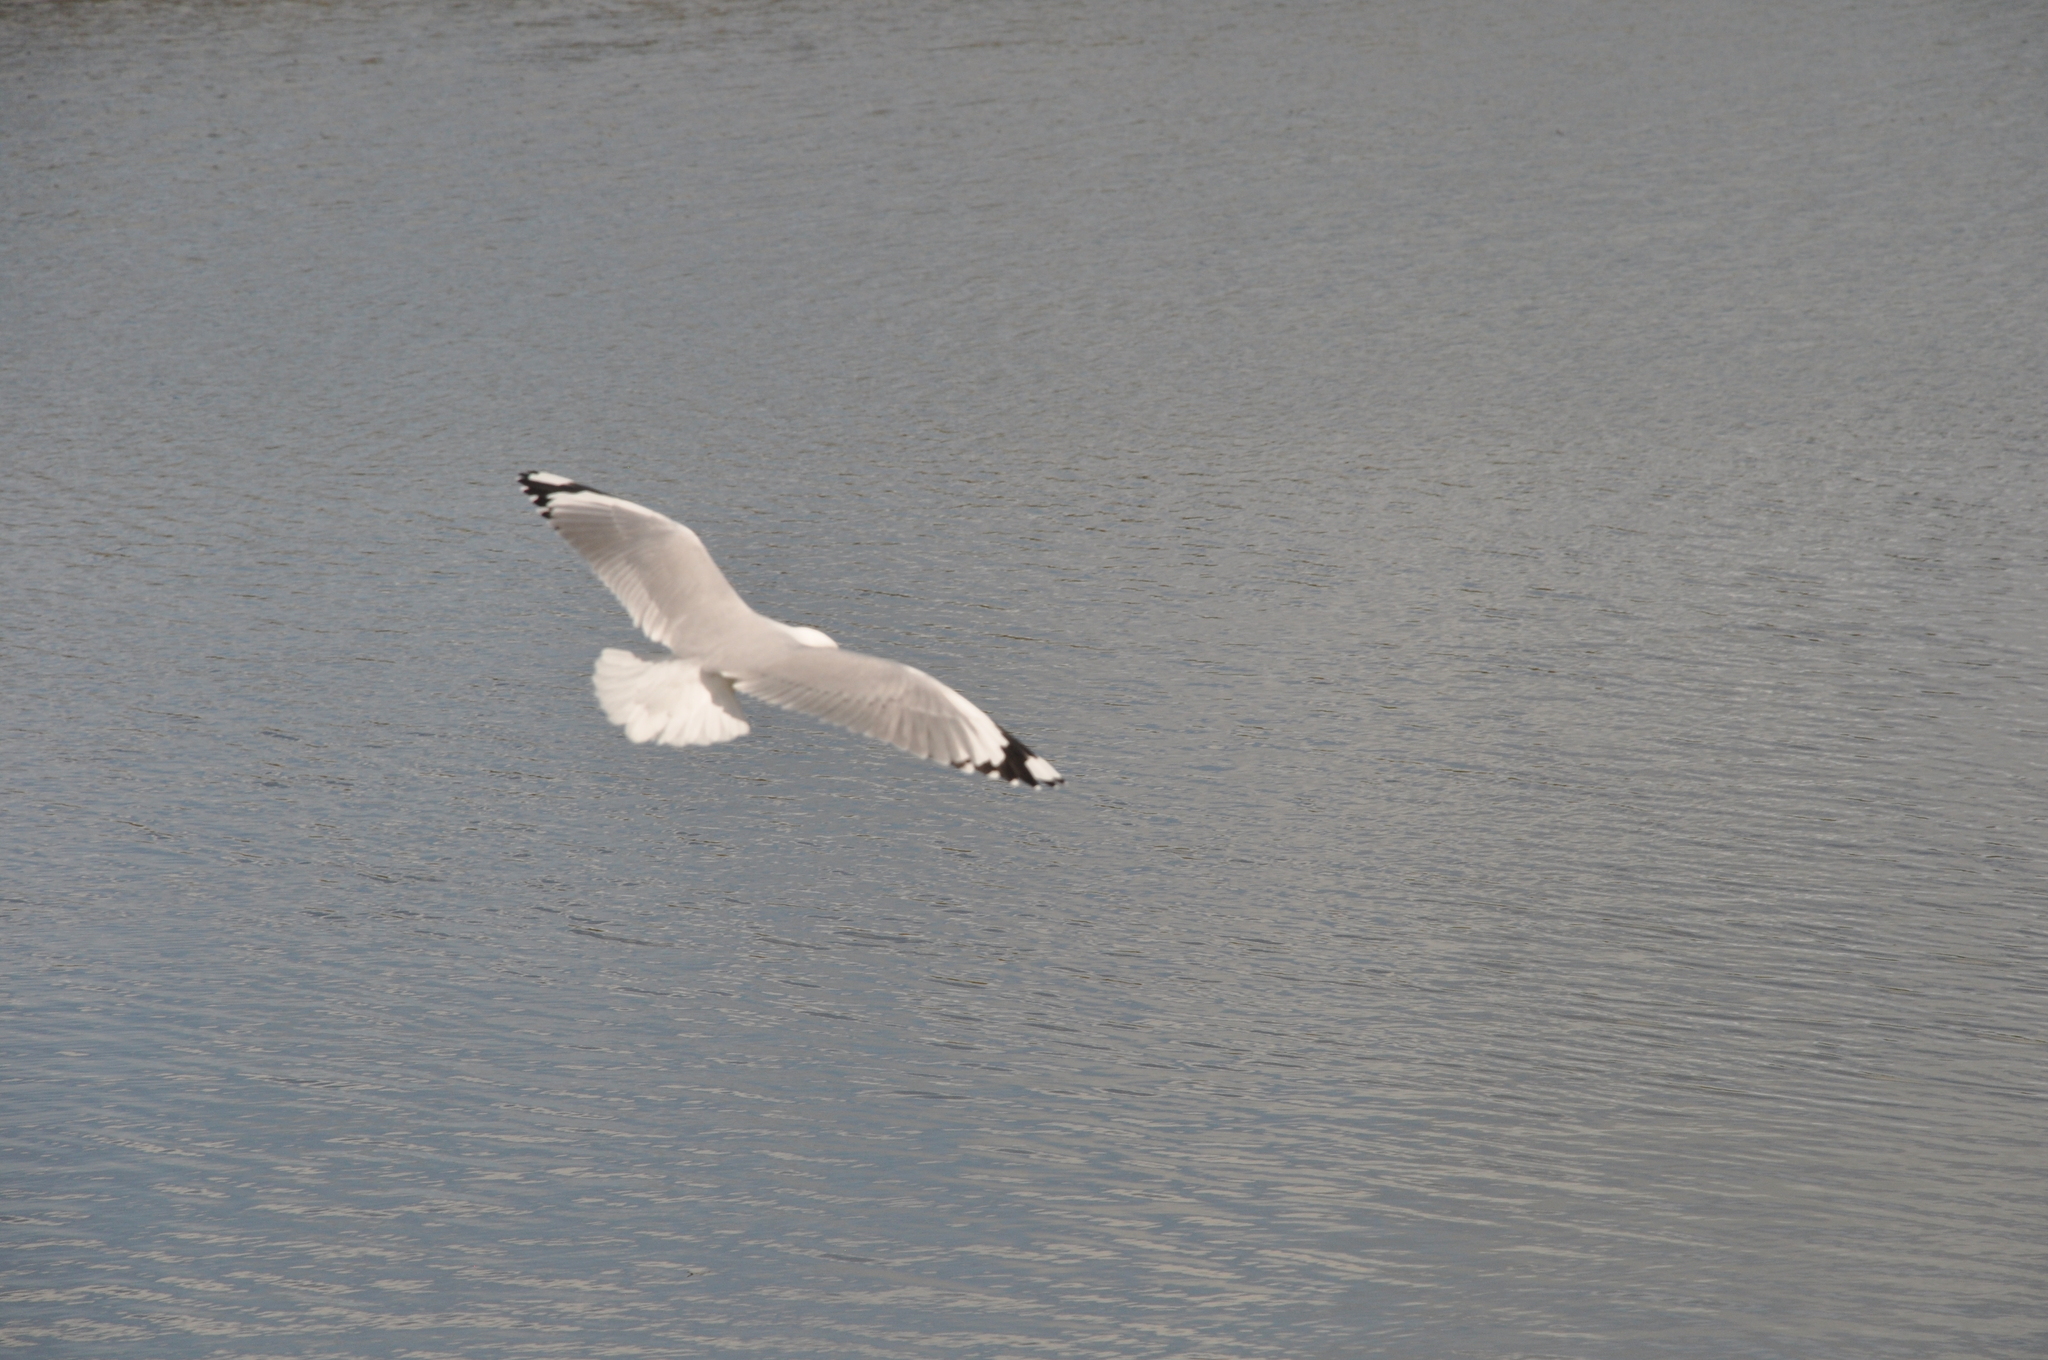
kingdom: Animalia
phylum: Chordata
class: Aves
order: Charadriiformes
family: Laridae
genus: Chroicocephalus
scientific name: Chroicocephalus novaehollandiae
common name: Silver gull
